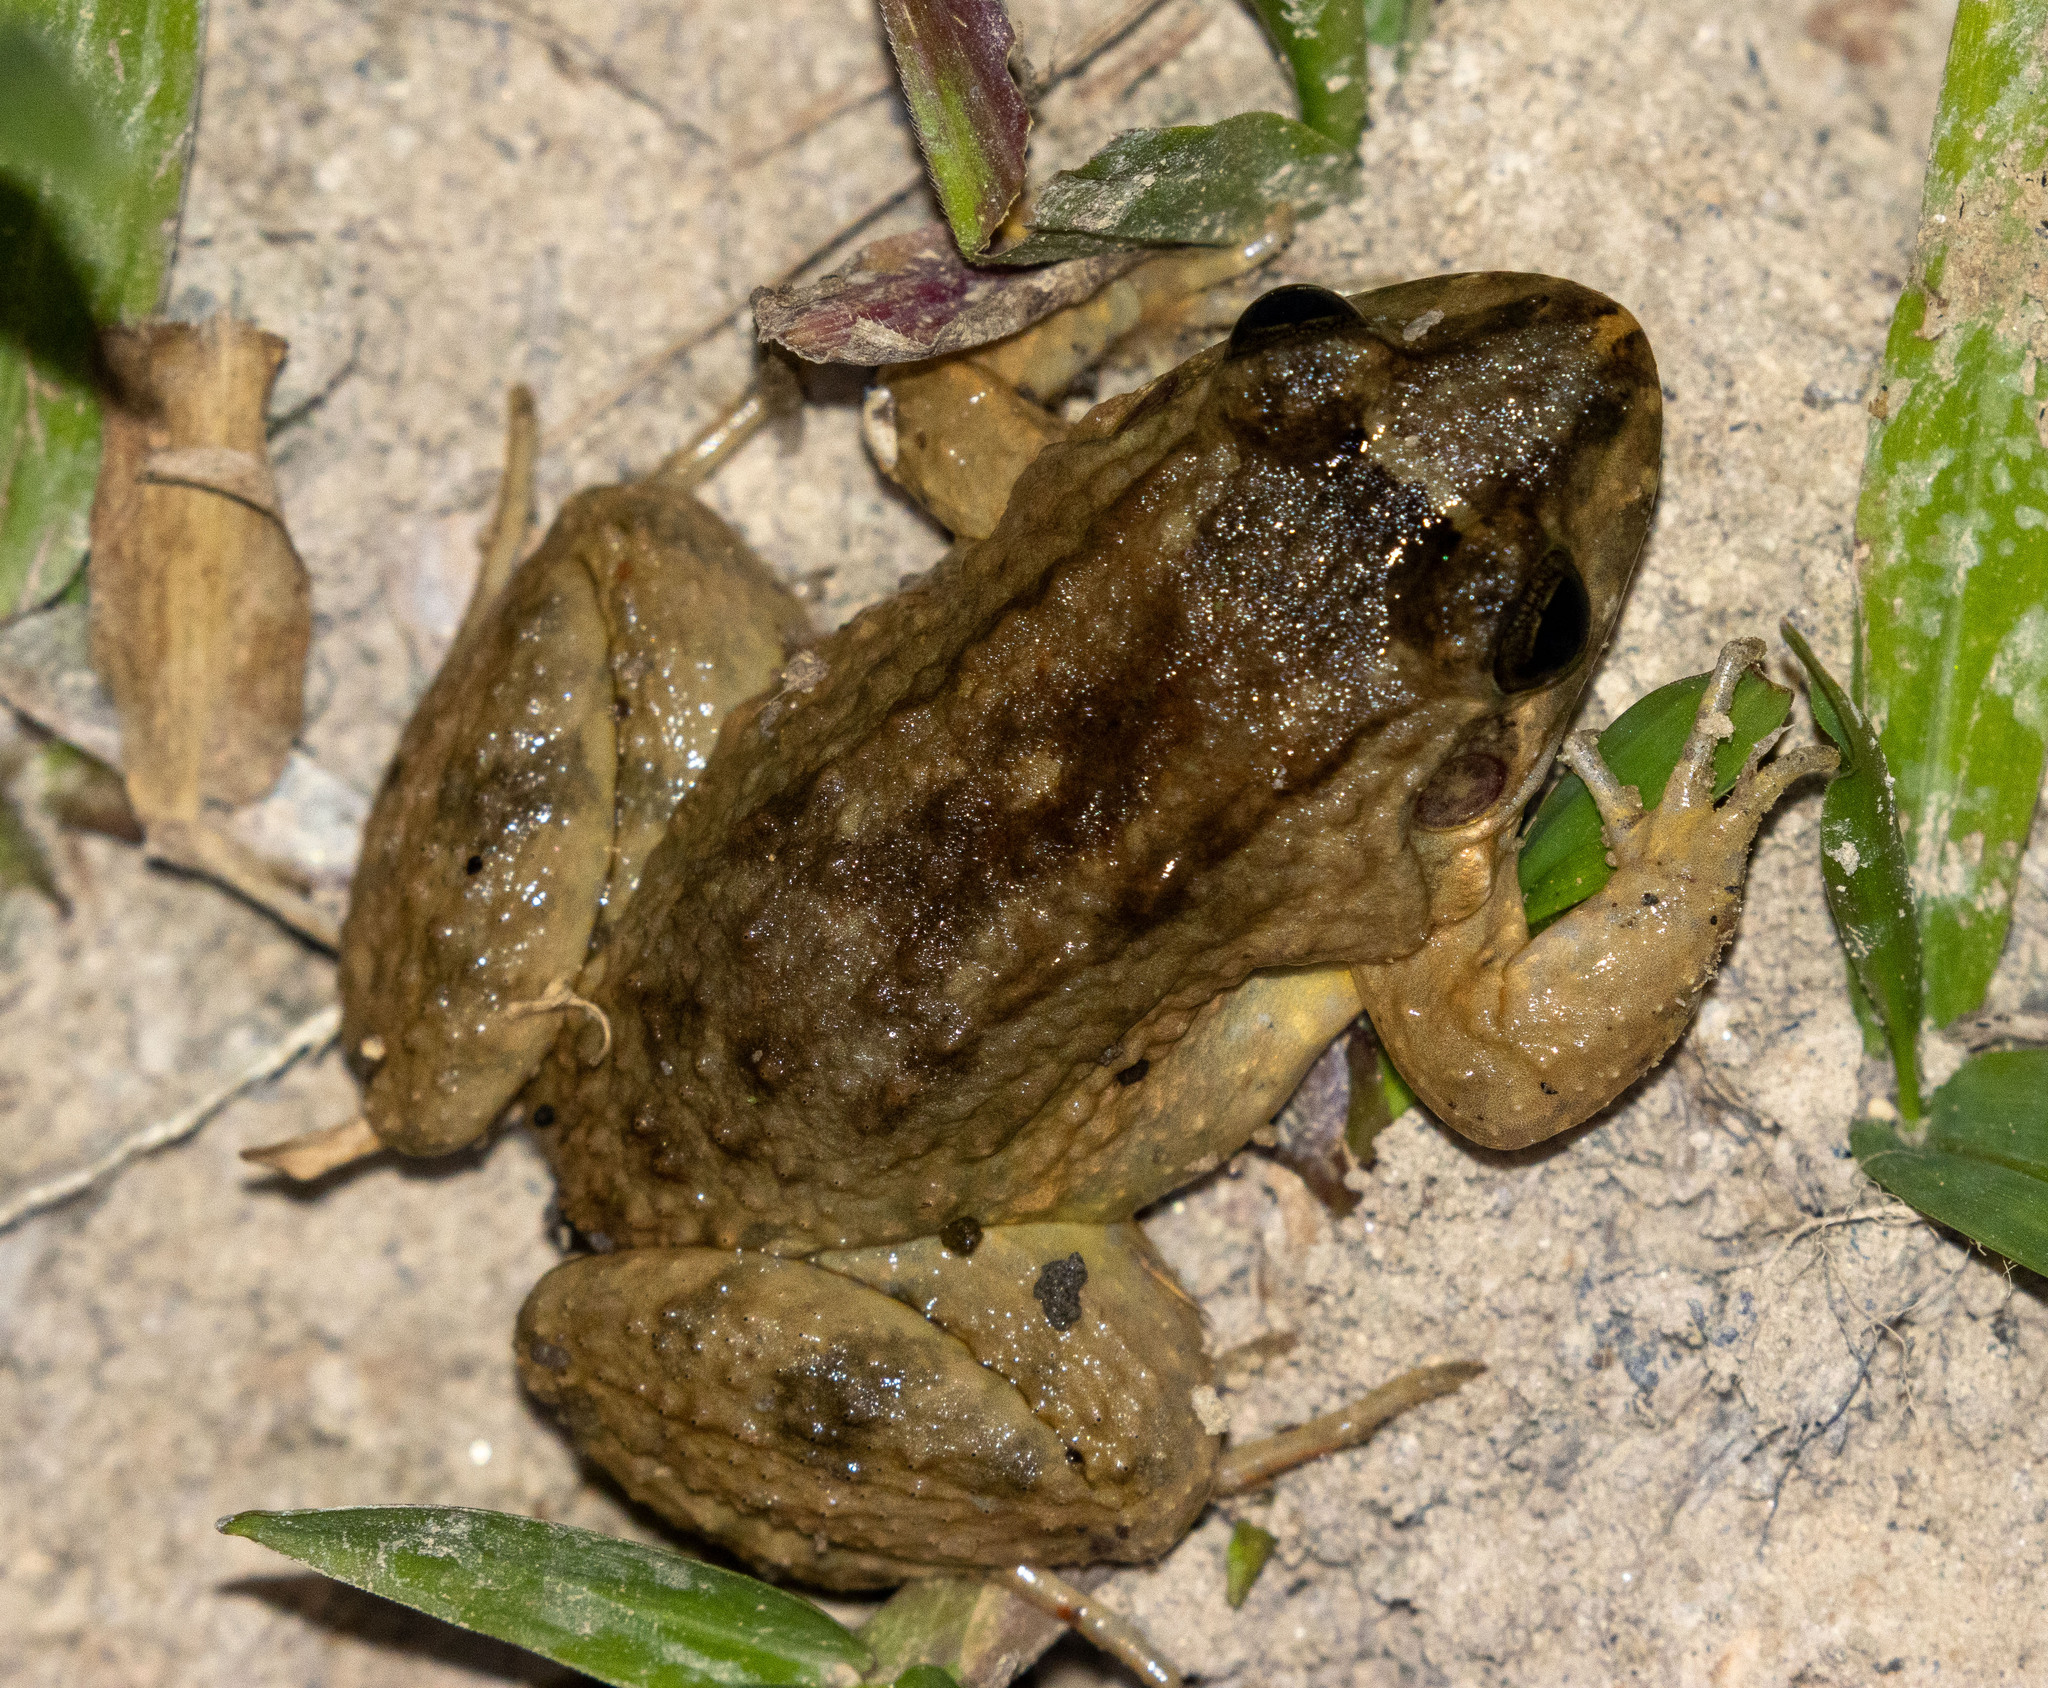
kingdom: Animalia
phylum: Chordata
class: Amphibia
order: Anura
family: Leptodactylidae
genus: Leptodactylus
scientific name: Leptodactylus natalensis
